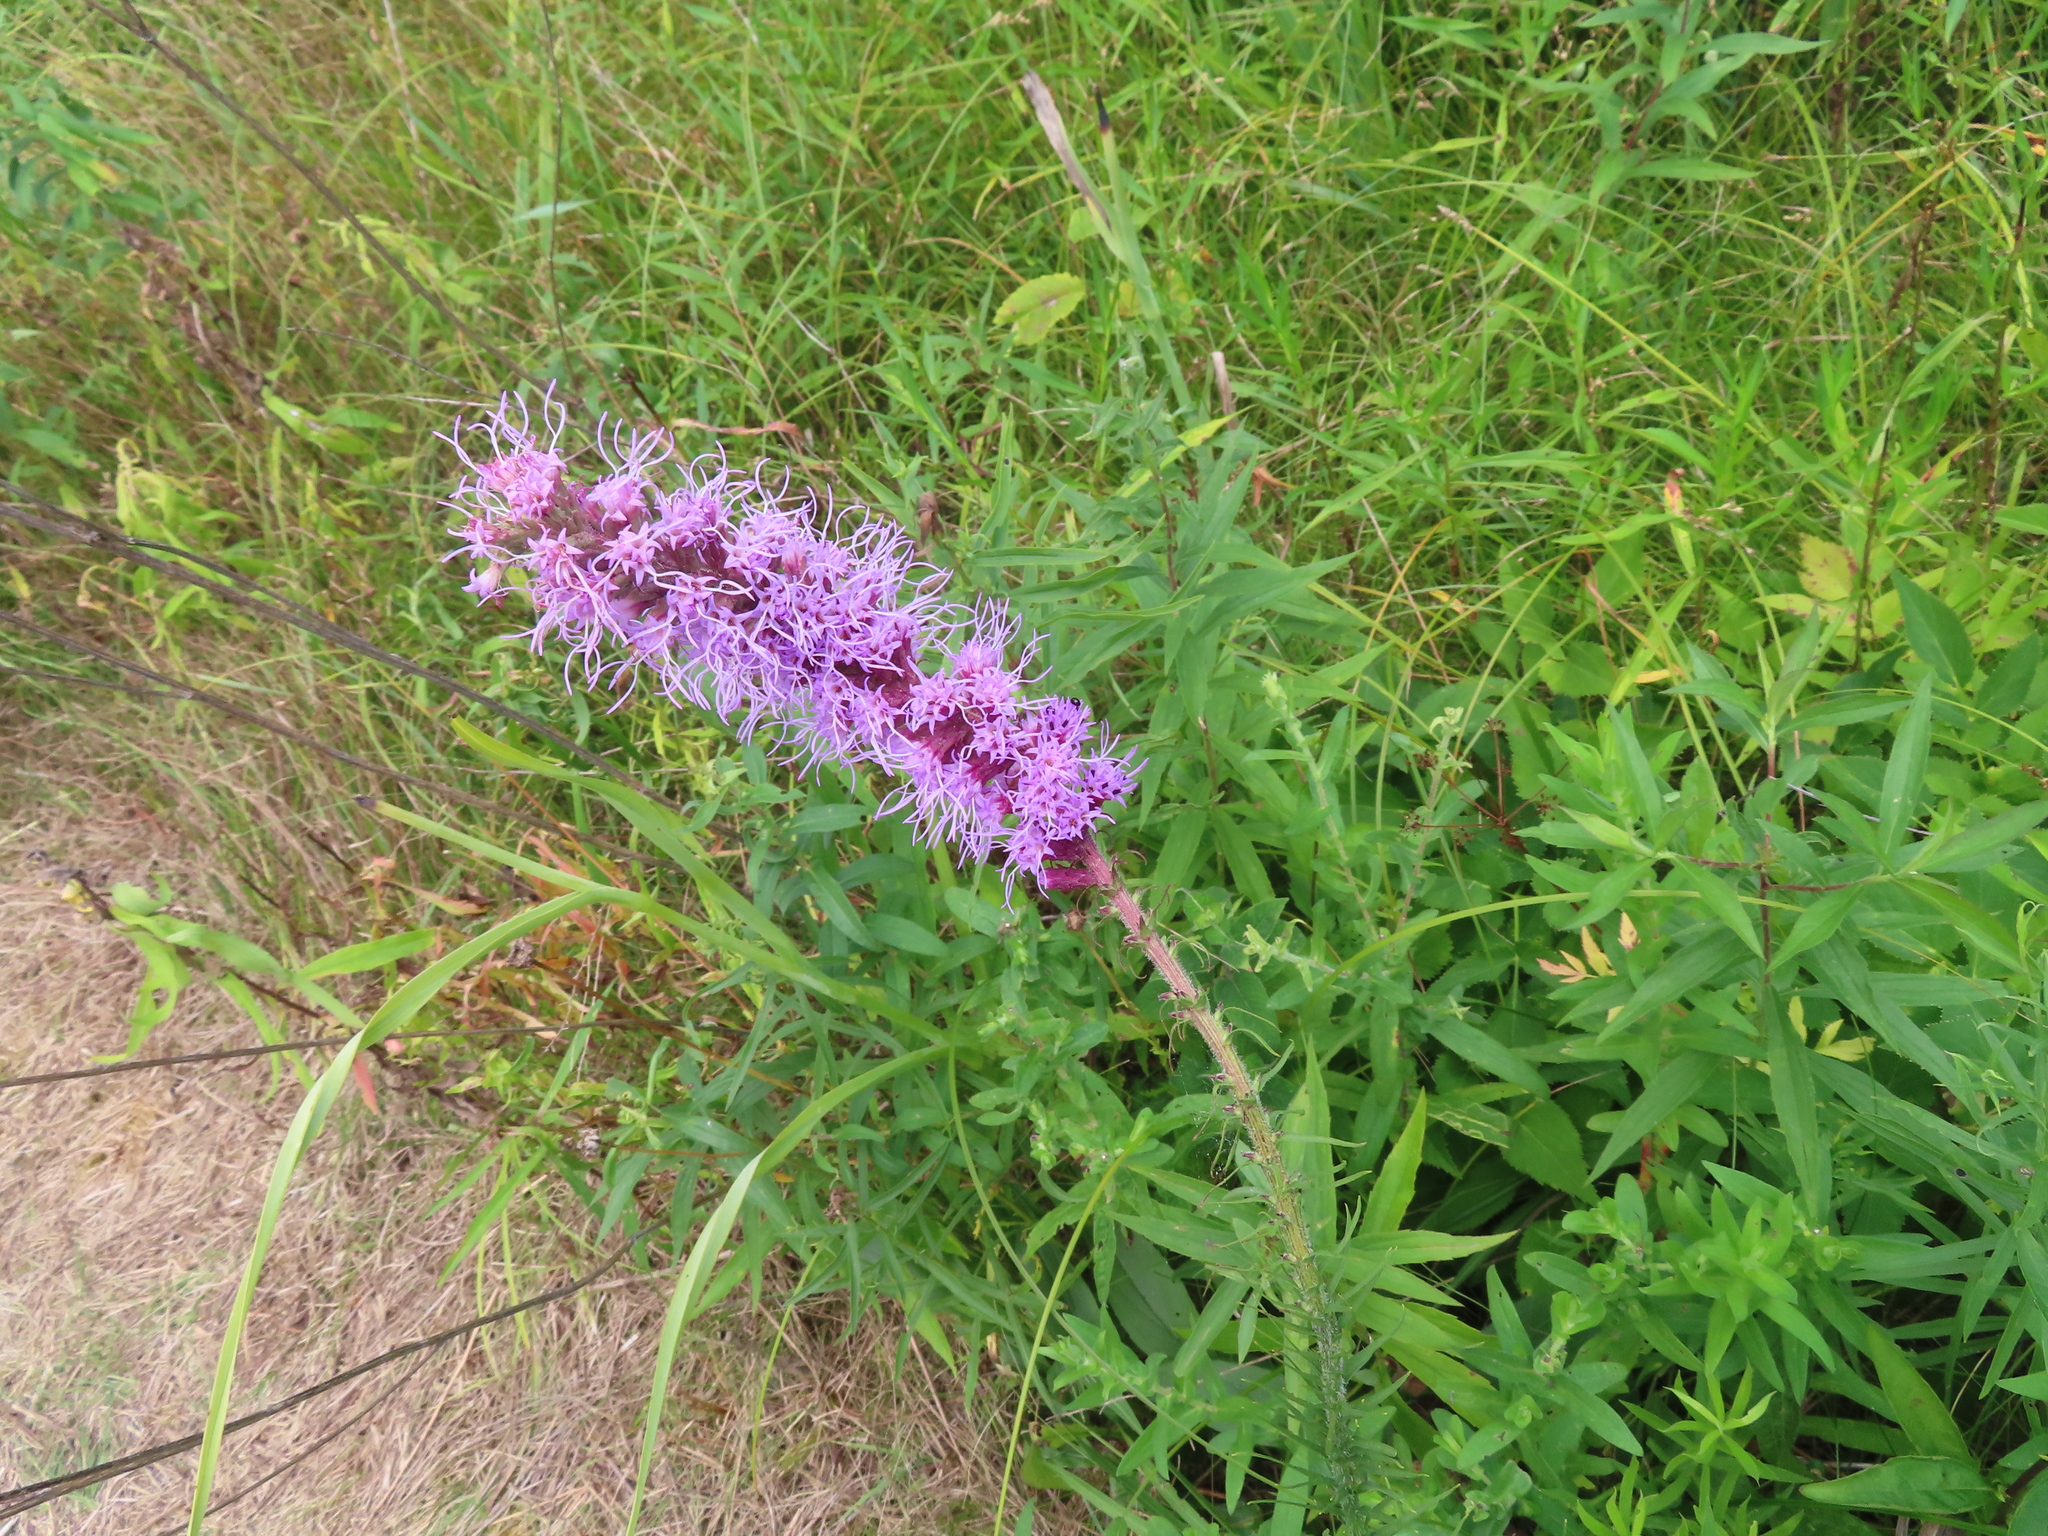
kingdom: Plantae
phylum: Tracheophyta
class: Magnoliopsida
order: Asterales
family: Asteraceae
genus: Liatris
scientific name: Liatris pycnostachya
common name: Cattail gayfeather
